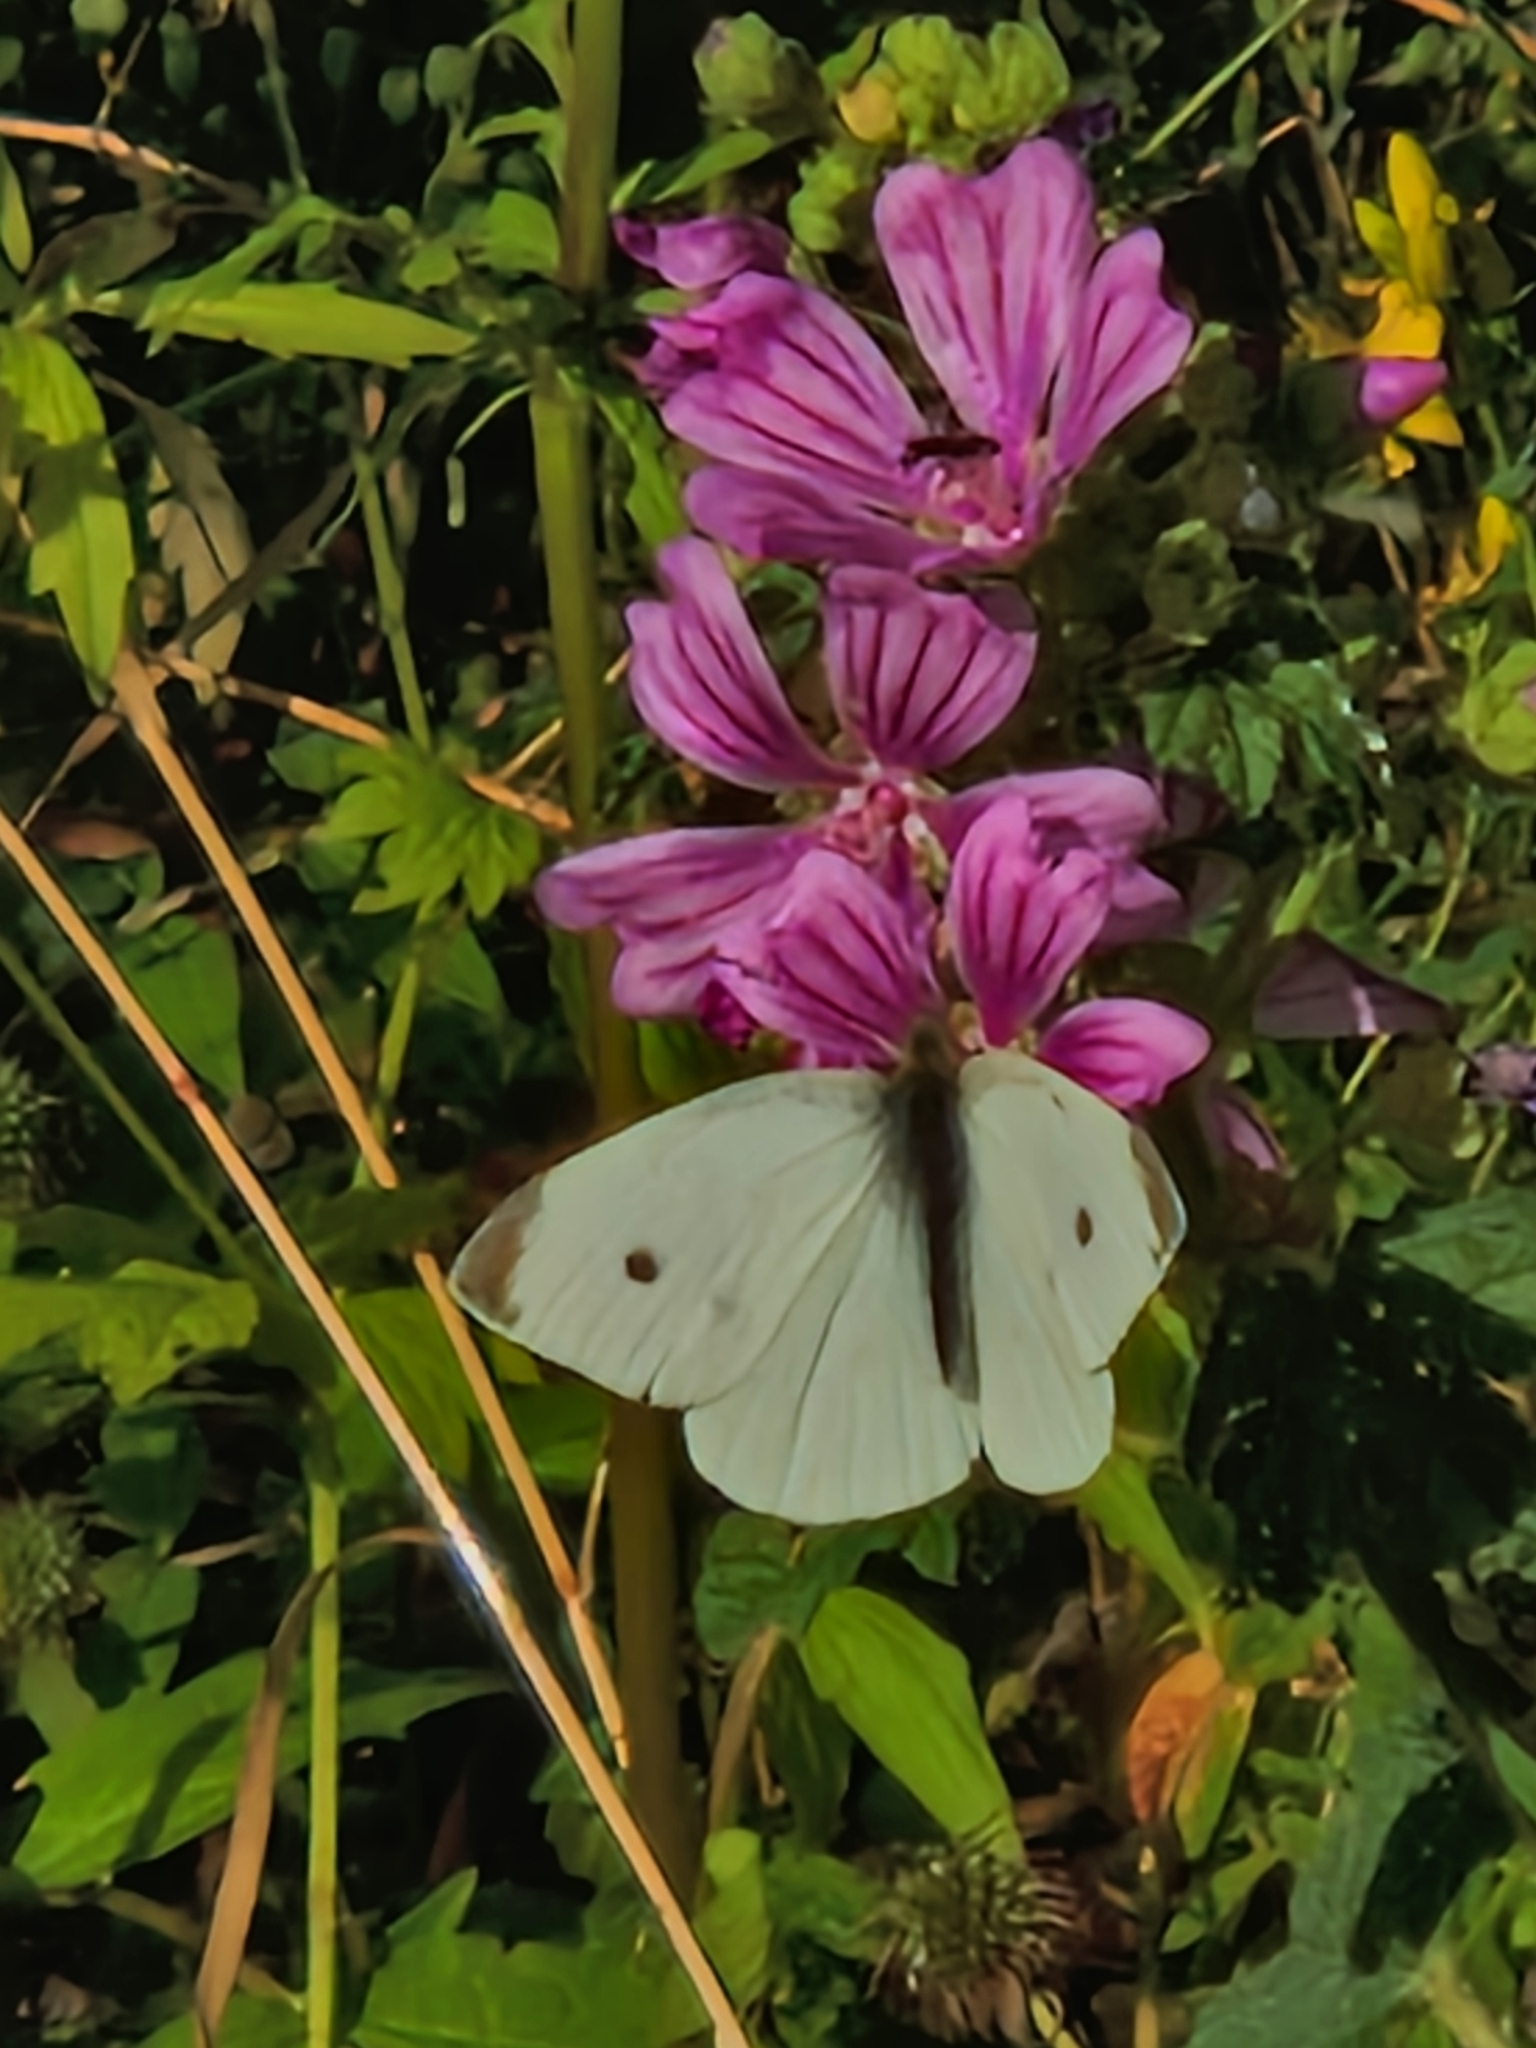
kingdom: Animalia
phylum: Arthropoda
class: Insecta
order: Lepidoptera
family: Pieridae
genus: Pieris
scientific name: Pieris rapae
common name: Small white
